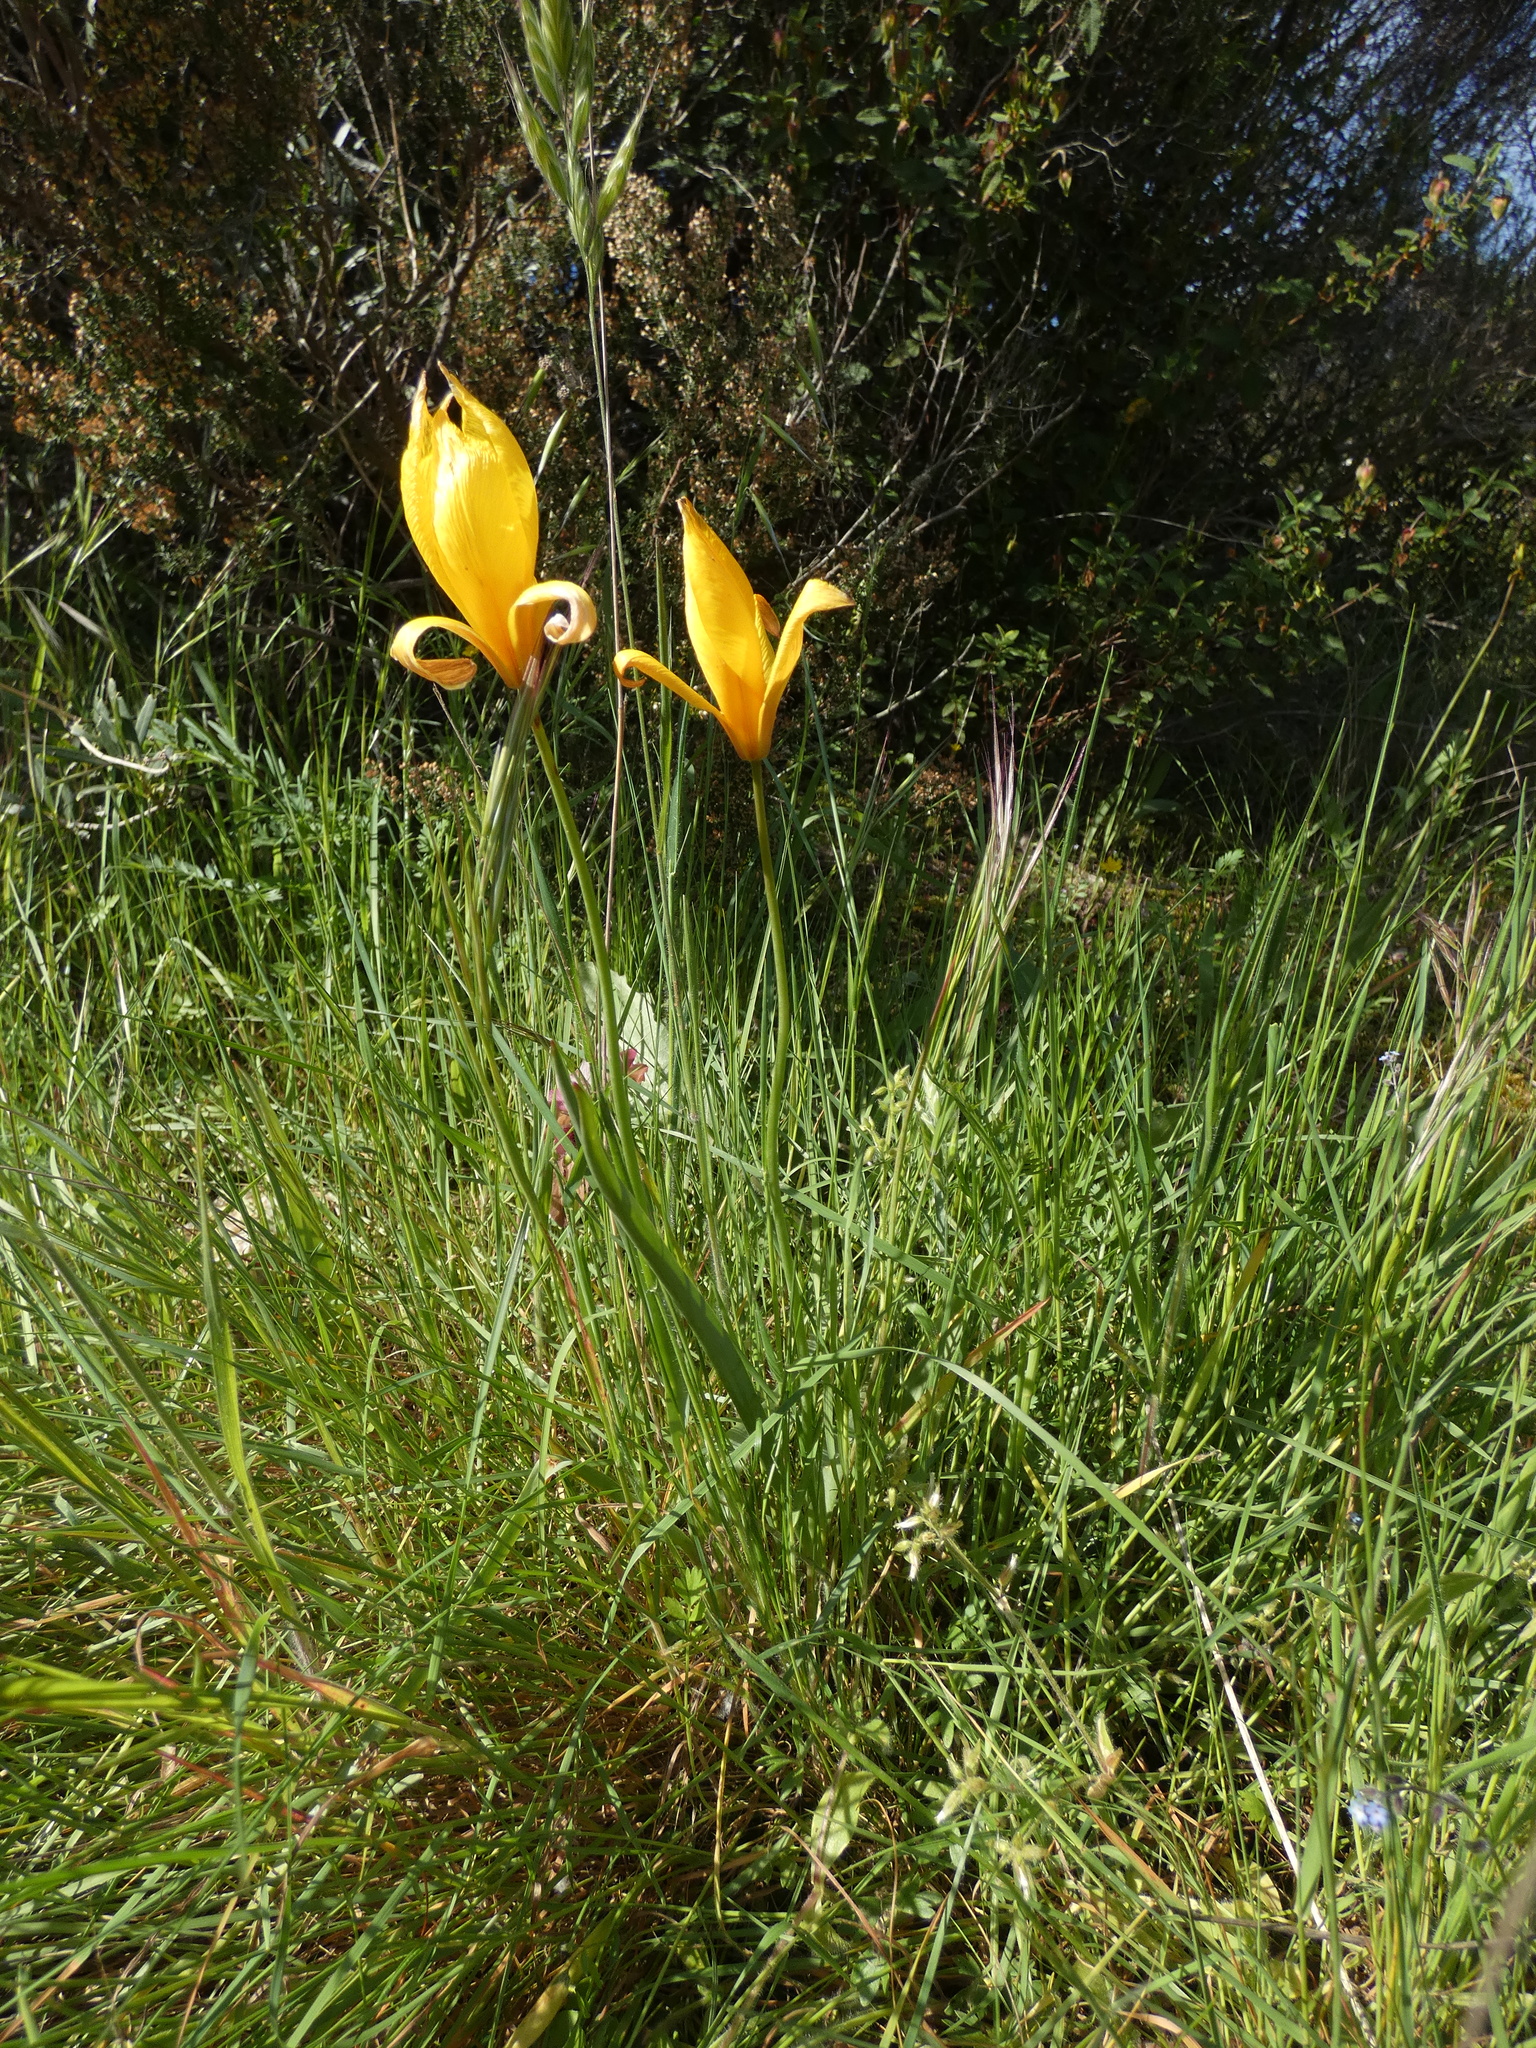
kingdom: Plantae
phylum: Tracheophyta
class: Liliopsida
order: Liliales
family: Liliaceae
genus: Tulipa
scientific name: Tulipa sylvestris
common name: Wild tulip
